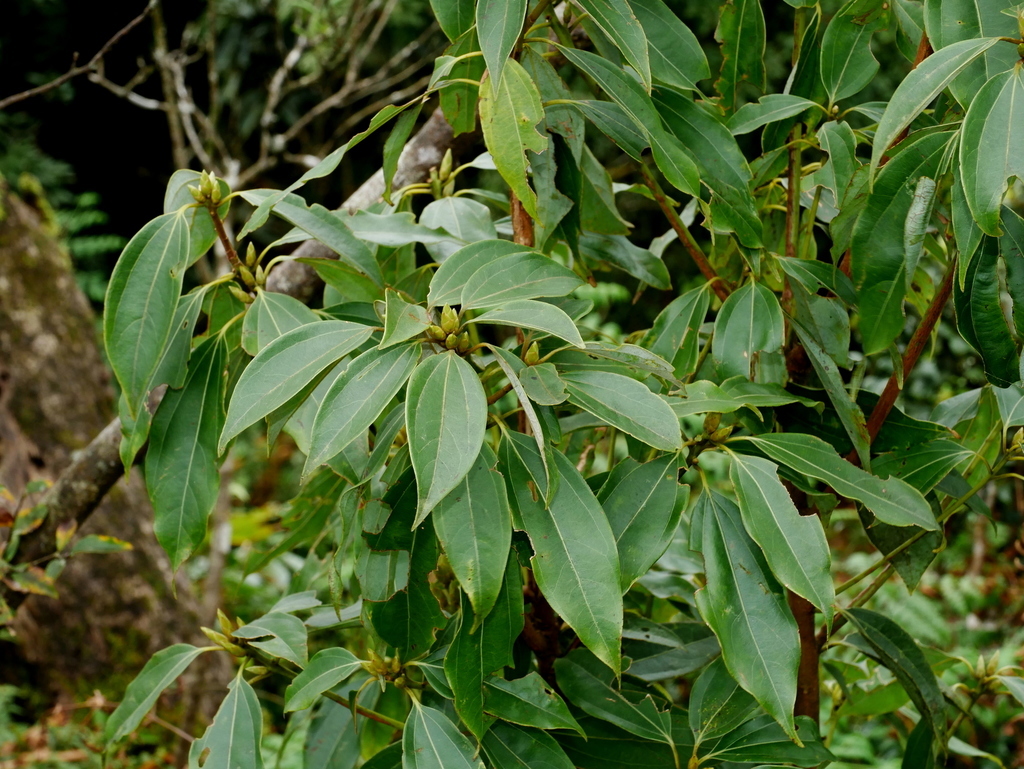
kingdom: Plantae
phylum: Tracheophyta
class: Magnoliopsida
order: Laurales
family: Lauraceae
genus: Neolitsea
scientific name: Neolitsea sericea
